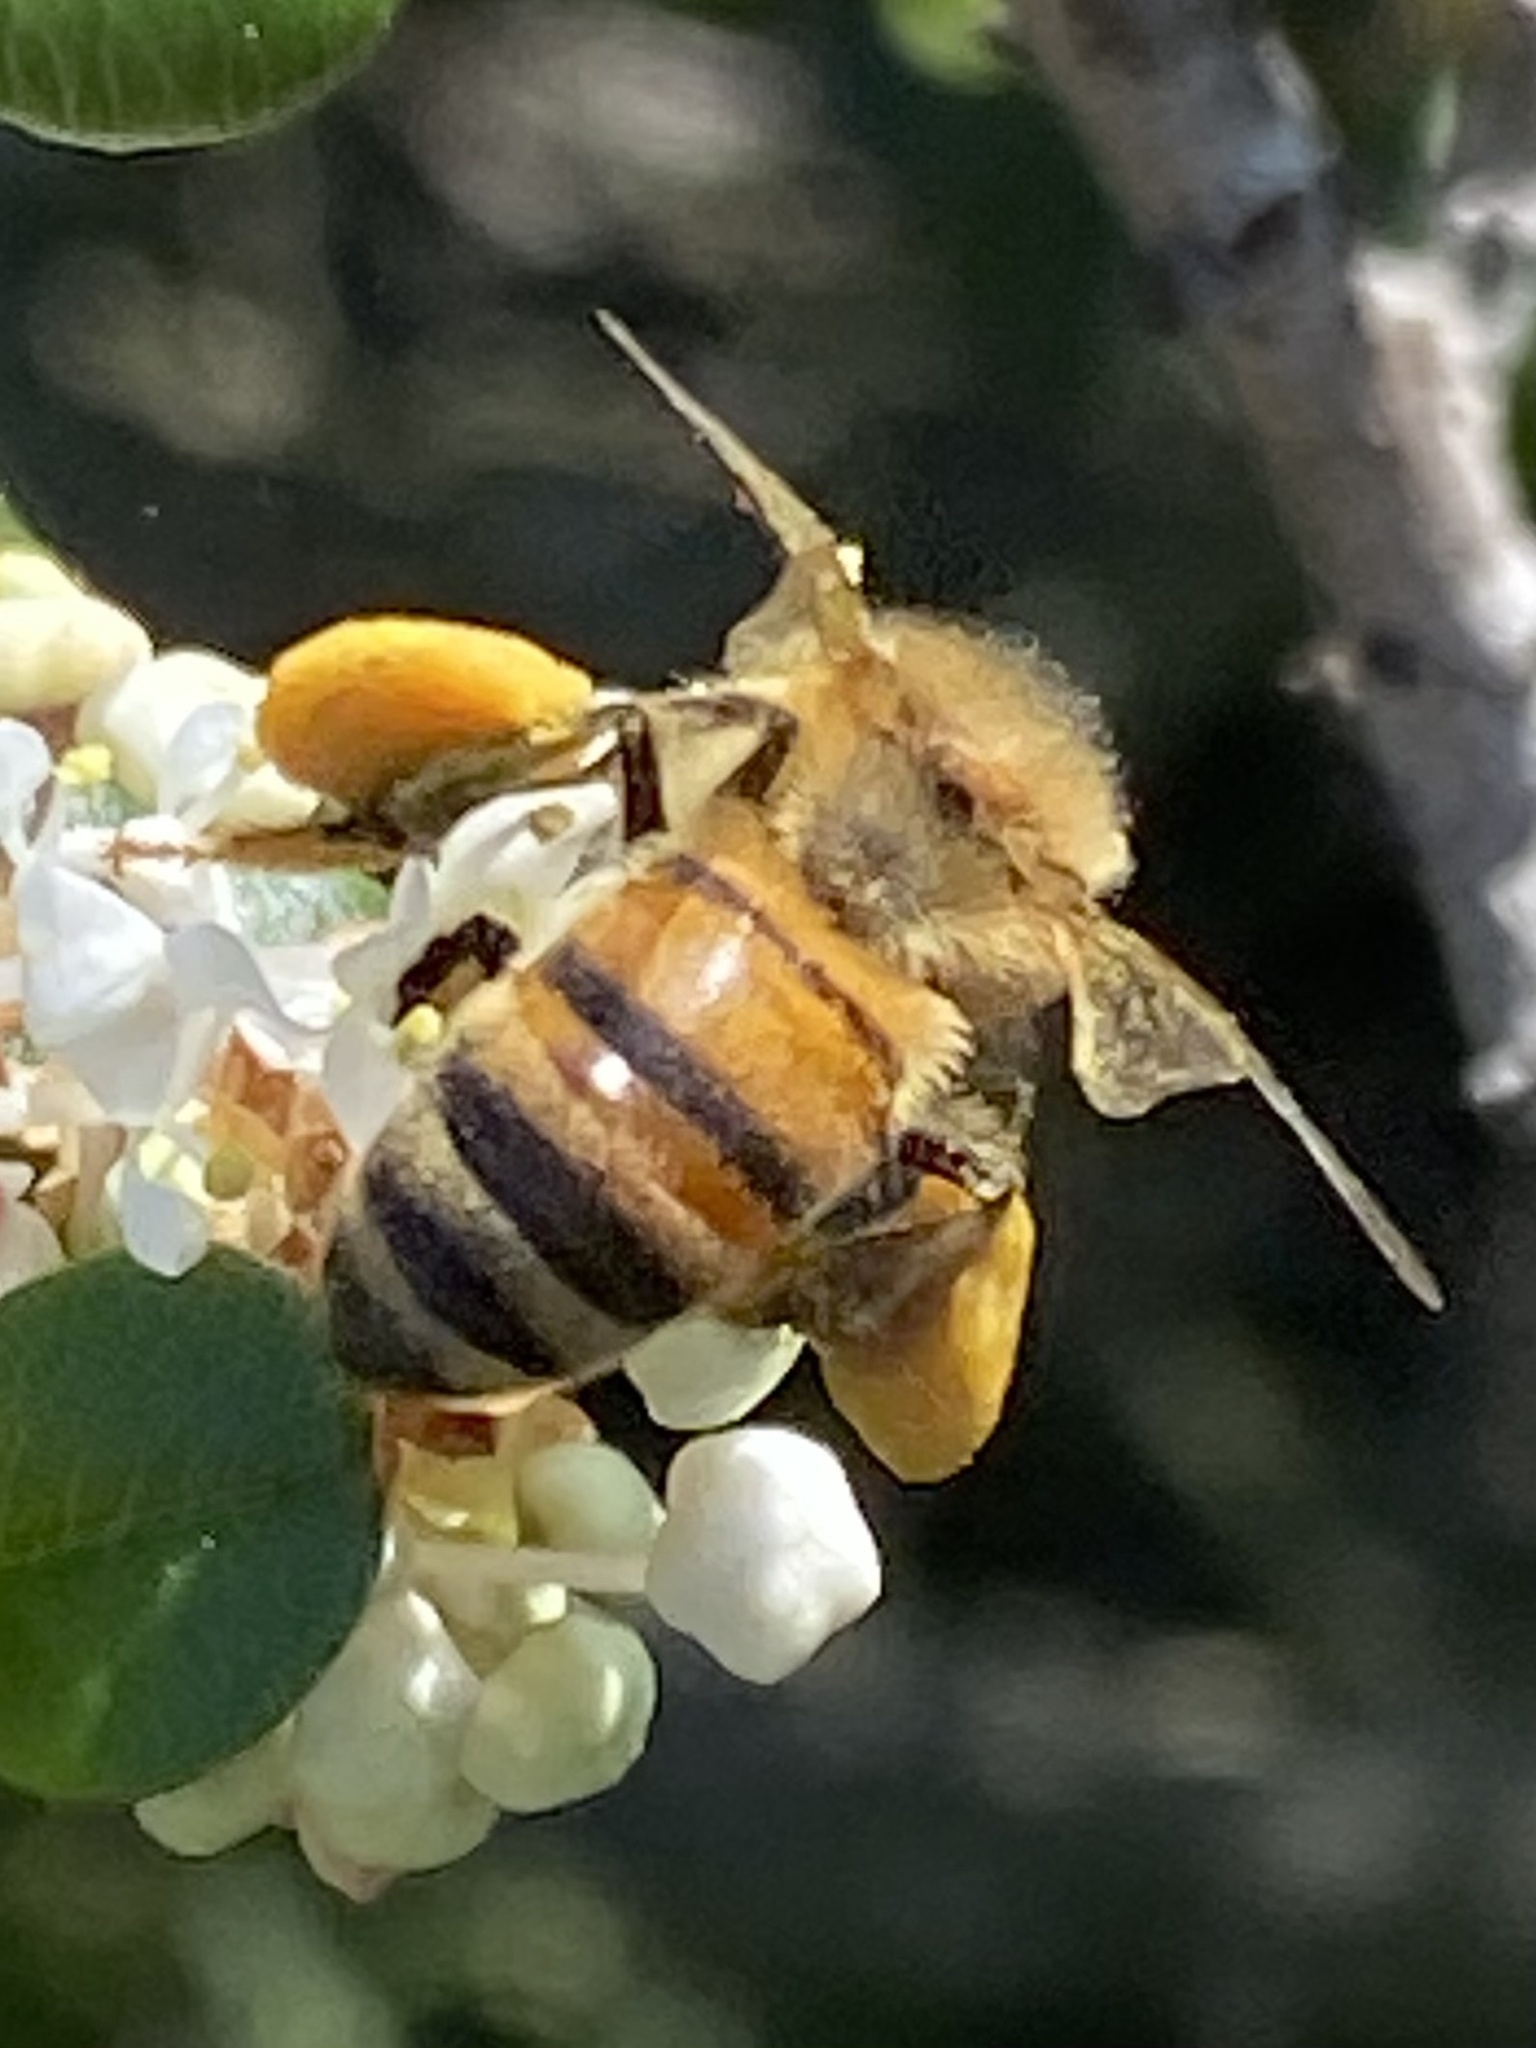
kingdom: Animalia
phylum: Arthropoda
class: Insecta
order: Hymenoptera
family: Apidae
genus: Apis
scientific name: Apis mellifera
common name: Honey bee
